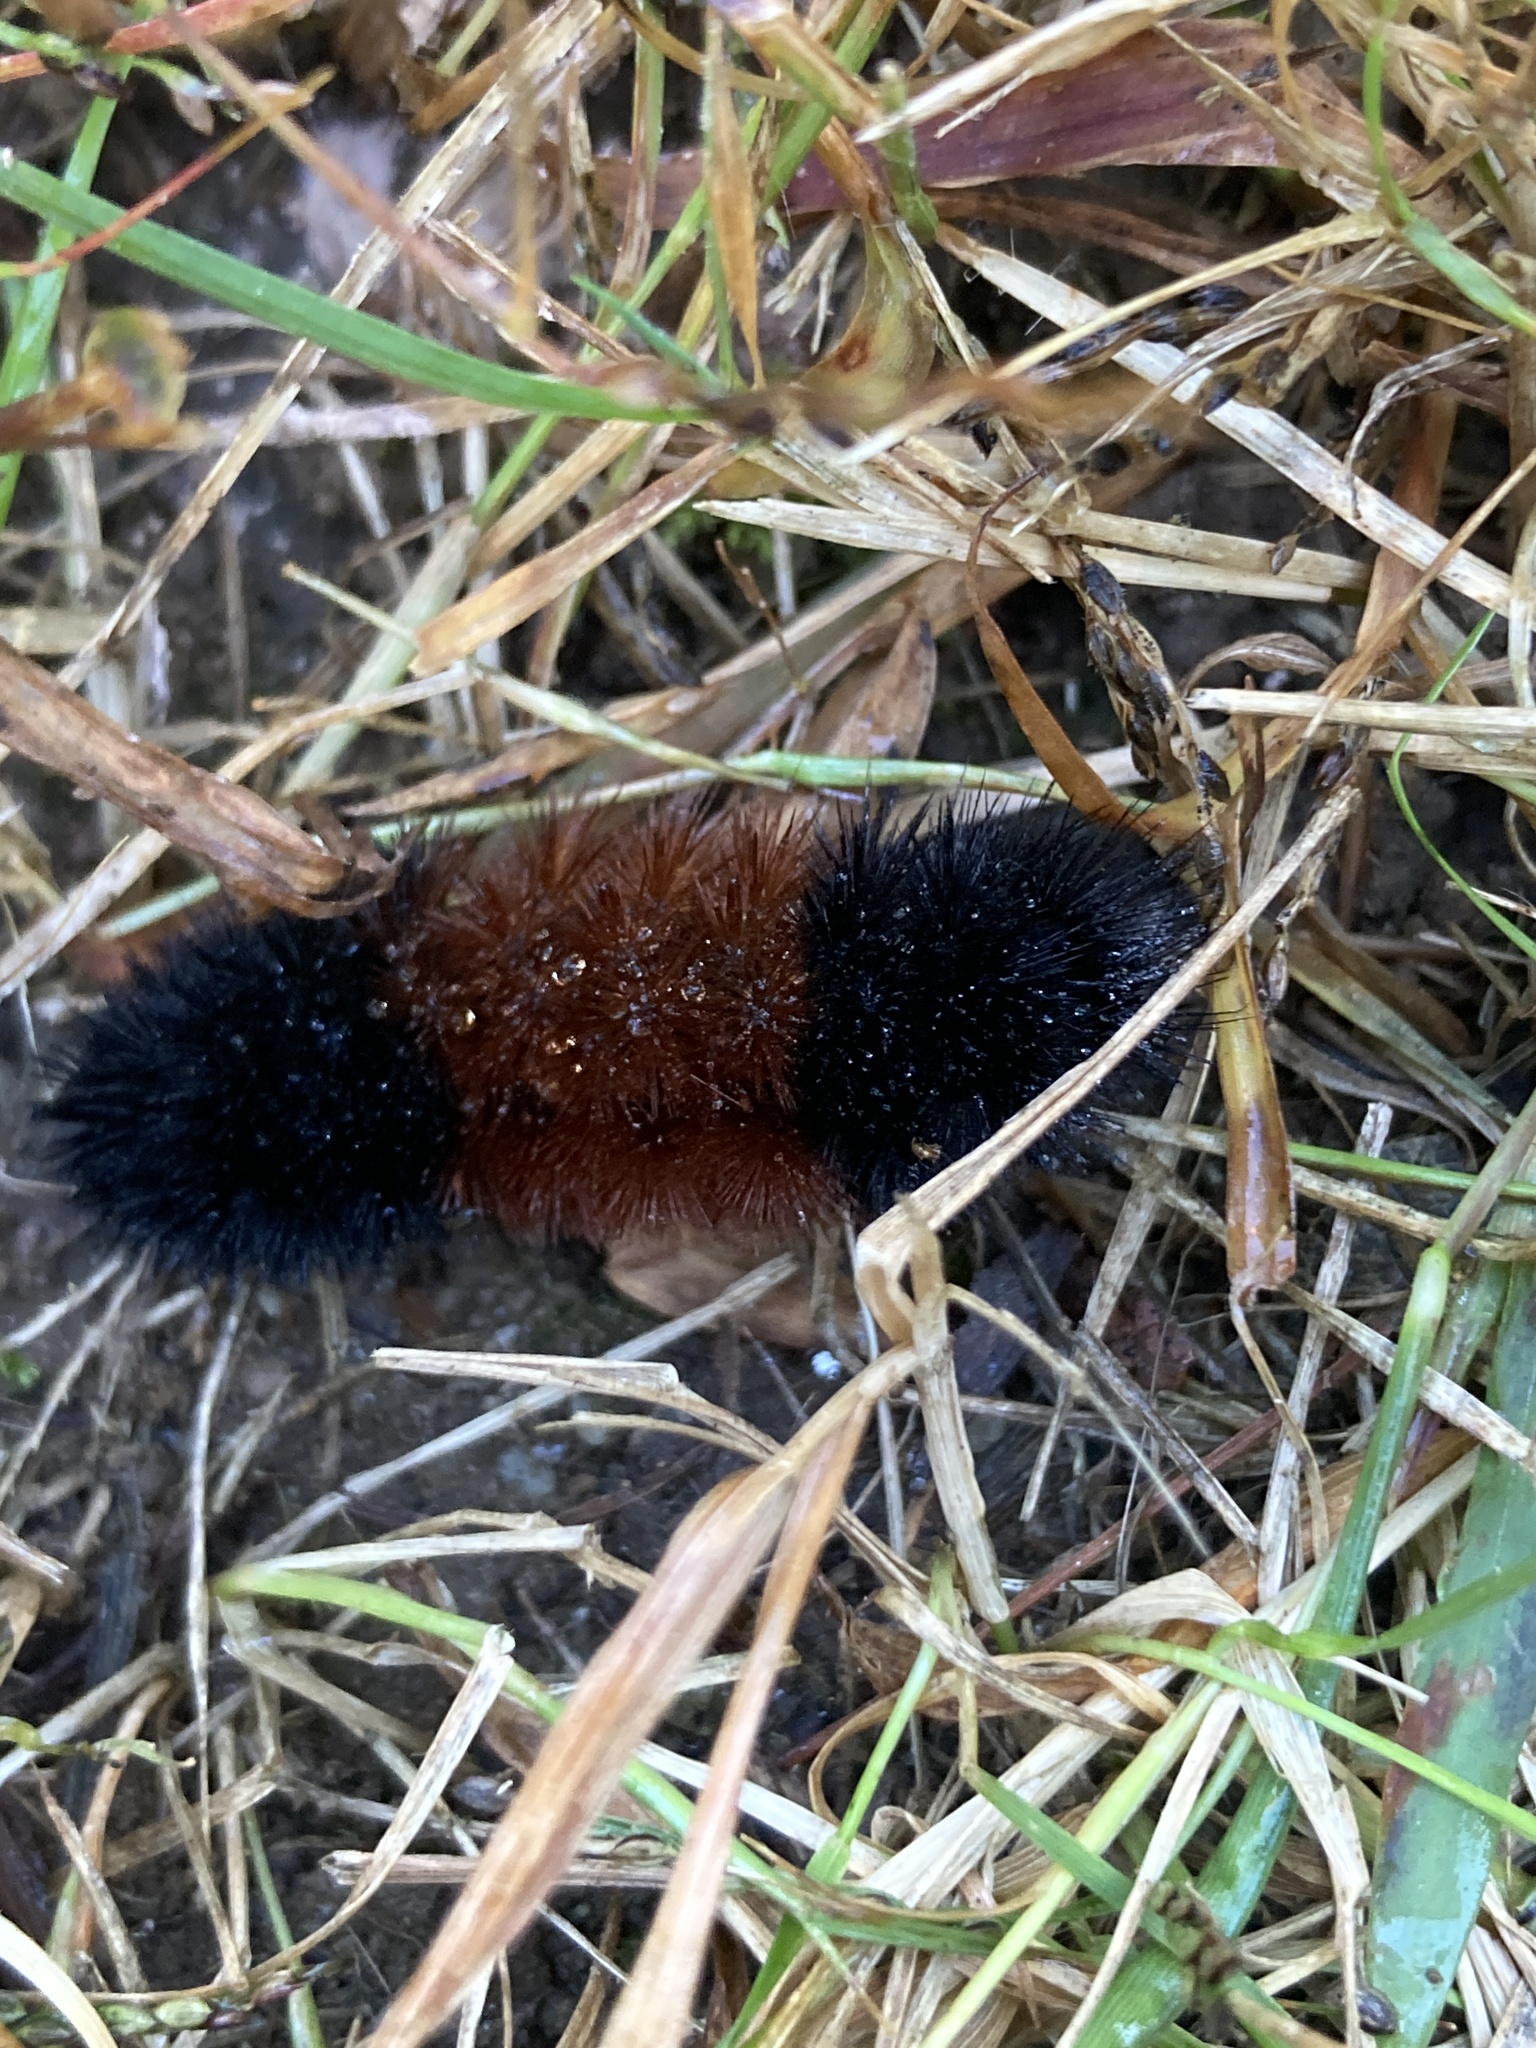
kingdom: Animalia
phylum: Arthropoda
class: Insecta
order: Lepidoptera
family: Erebidae
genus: Pyrrharctia
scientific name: Pyrrharctia isabella
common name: Isabella tiger moth
